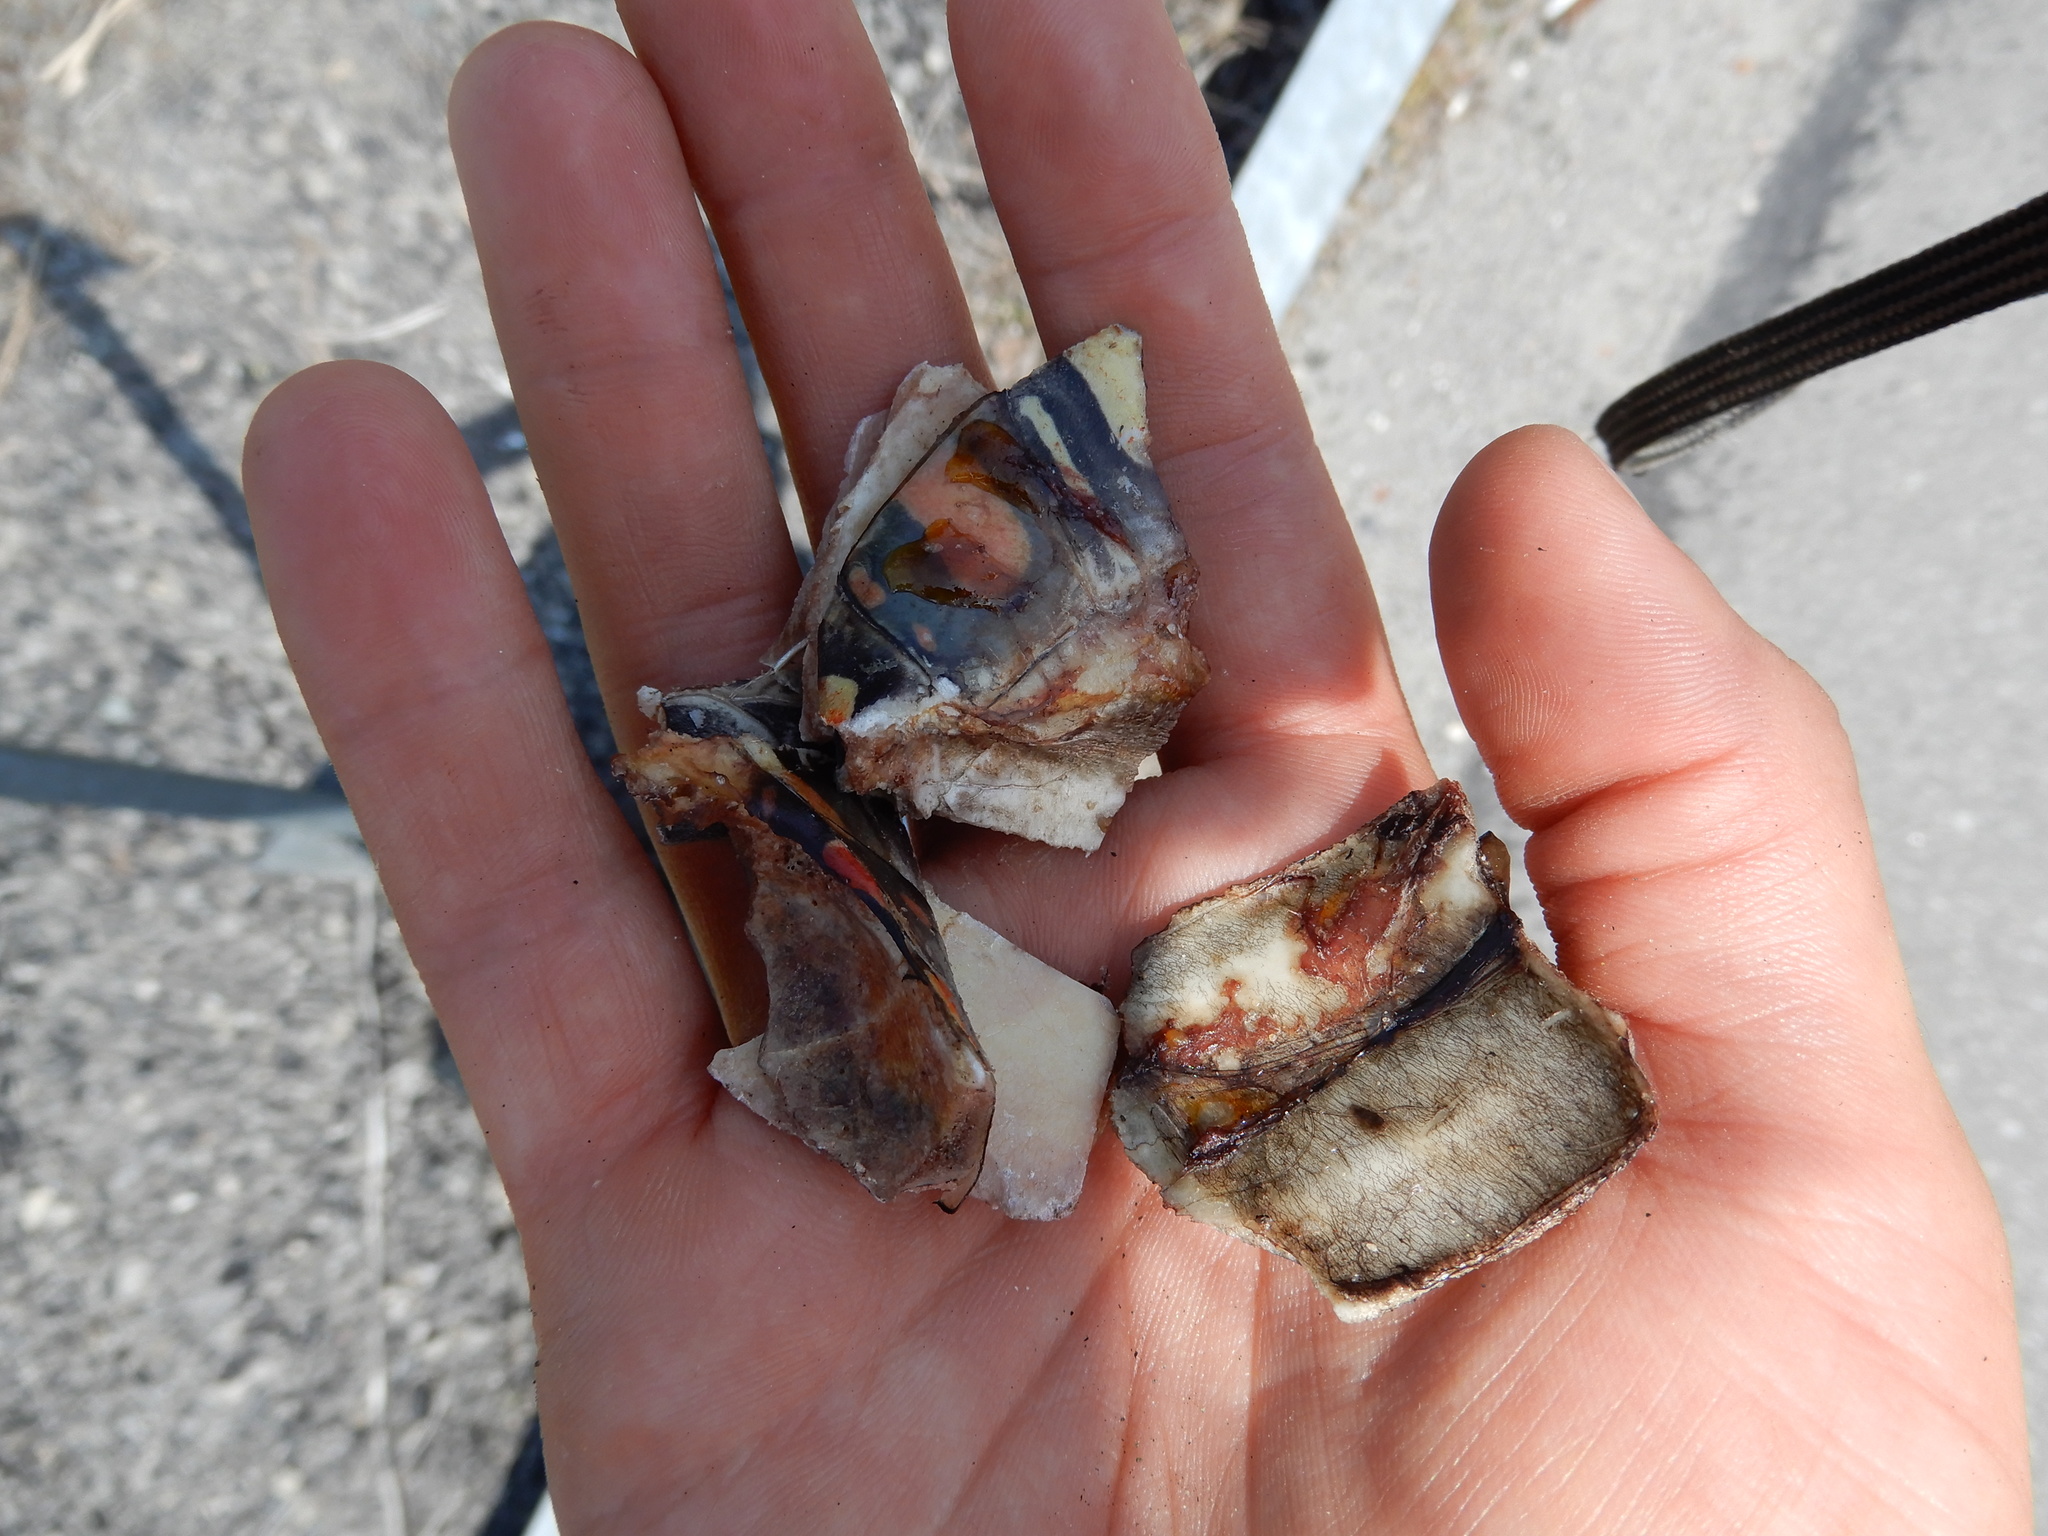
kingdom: Animalia
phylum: Chordata
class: Testudines
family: Emydidae
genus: Chrysemys
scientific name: Chrysemys picta
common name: Painted turtle
